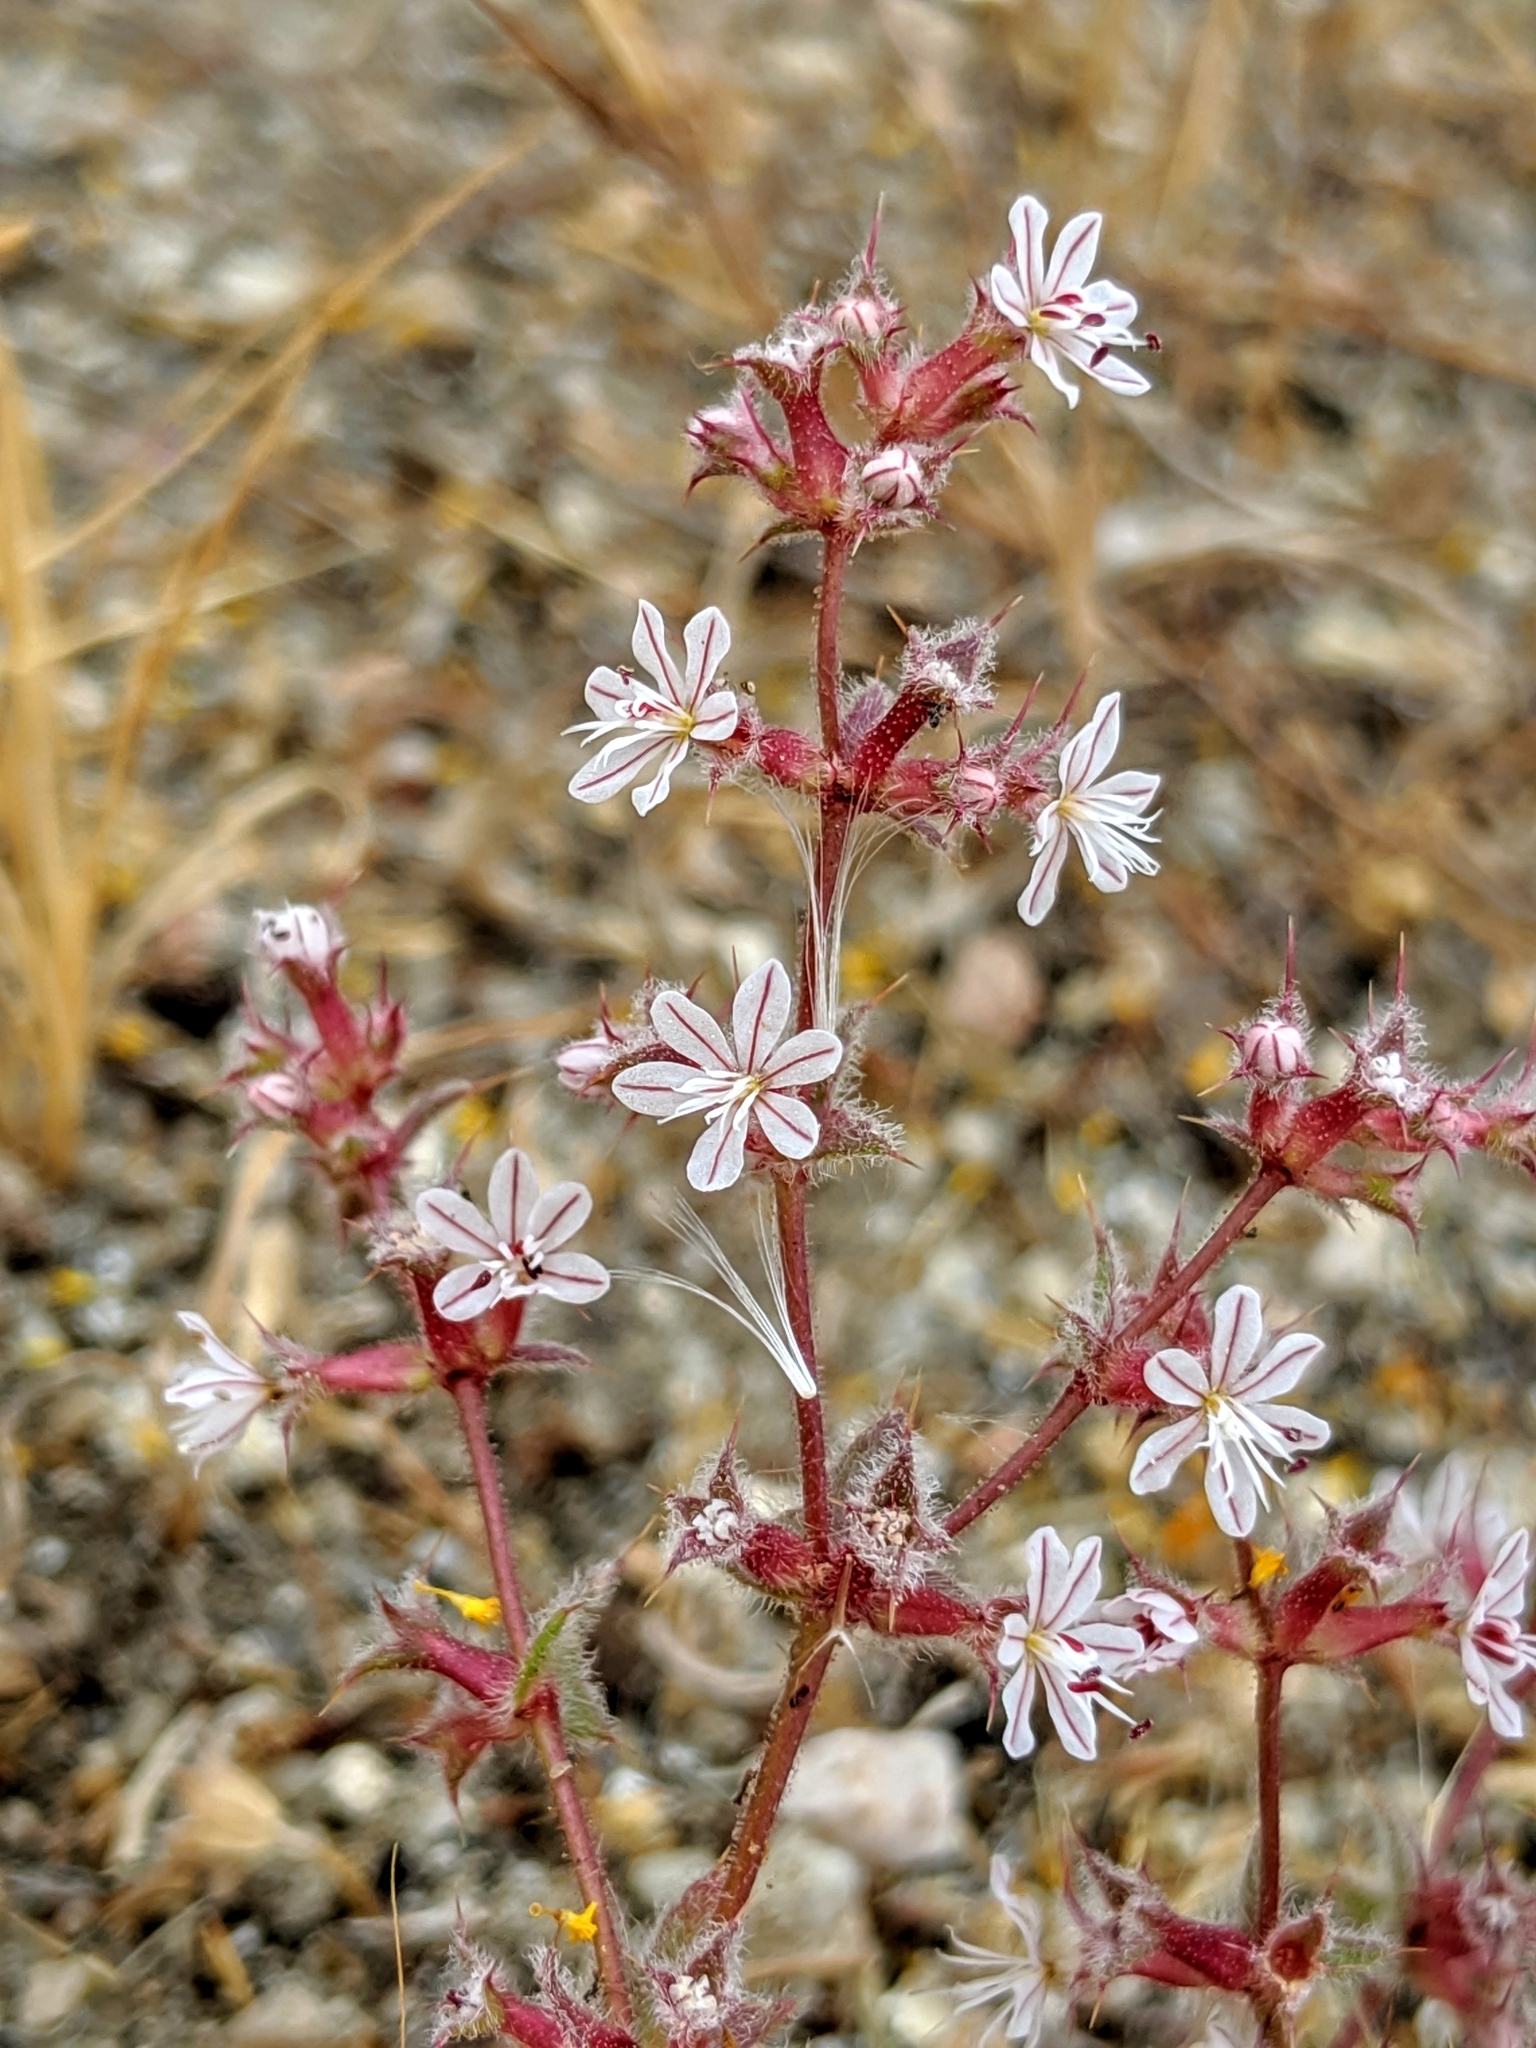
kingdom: Plantae
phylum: Tracheophyta
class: Magnoliopsida
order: Caryophyllales
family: Polygonaceae
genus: Mucronea
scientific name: Mucronea californica
